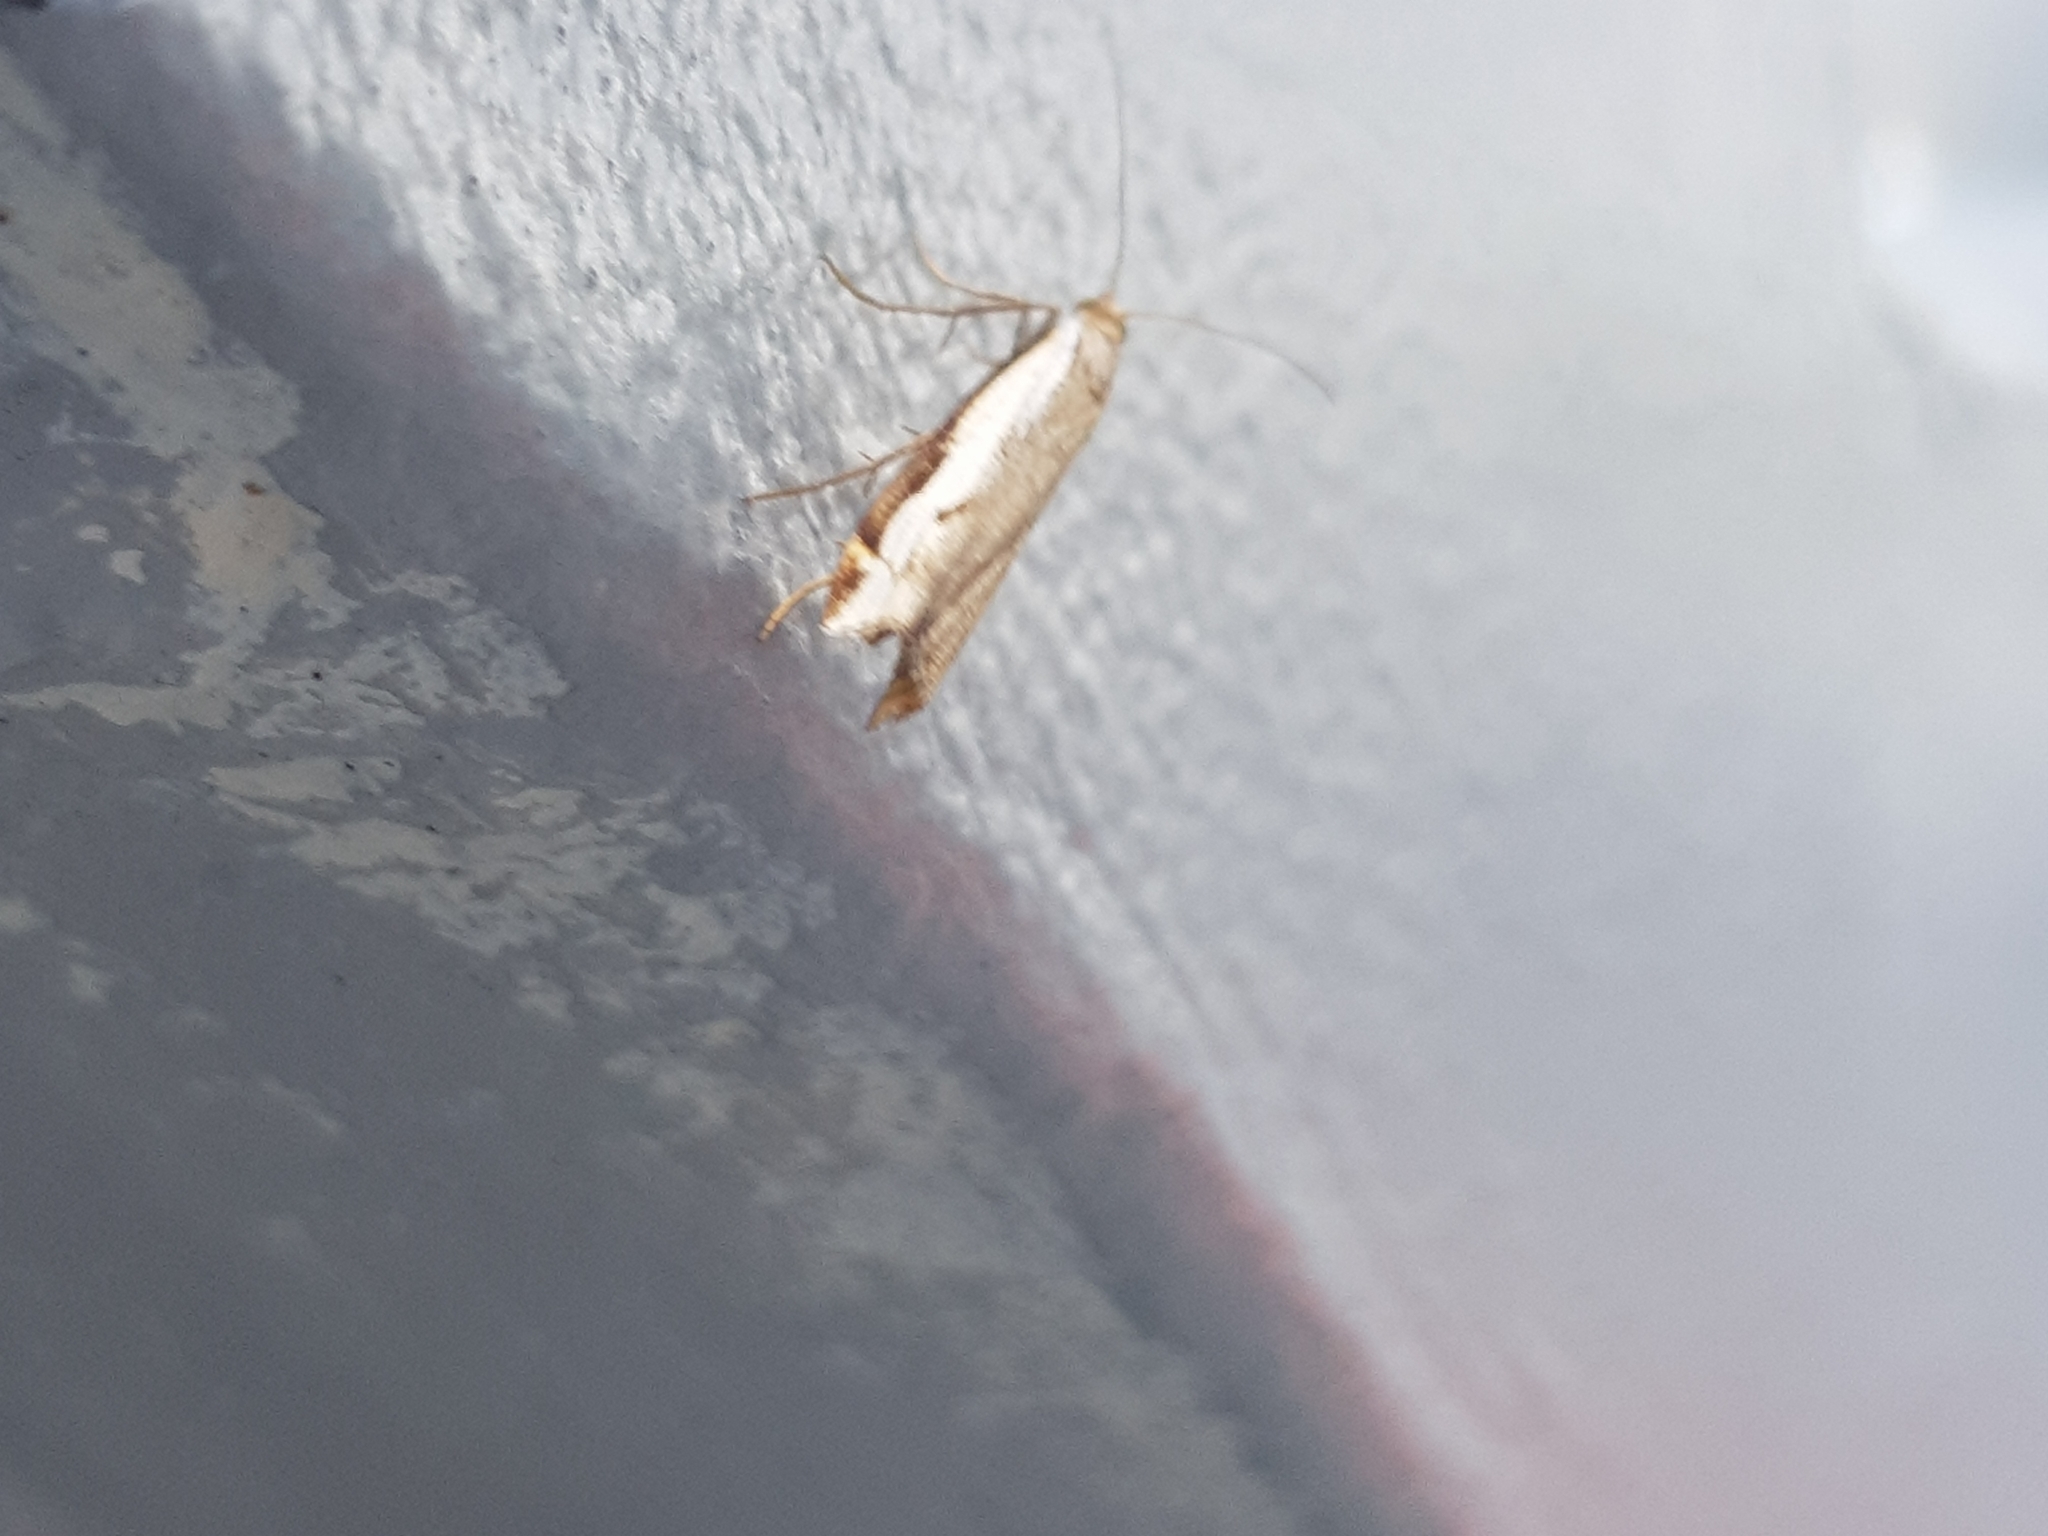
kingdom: Animalia
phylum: Arthropoda
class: Insecta
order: Lepidoptera
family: Crambidae
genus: Orocrambus
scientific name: Orocrambus flexuosellus
